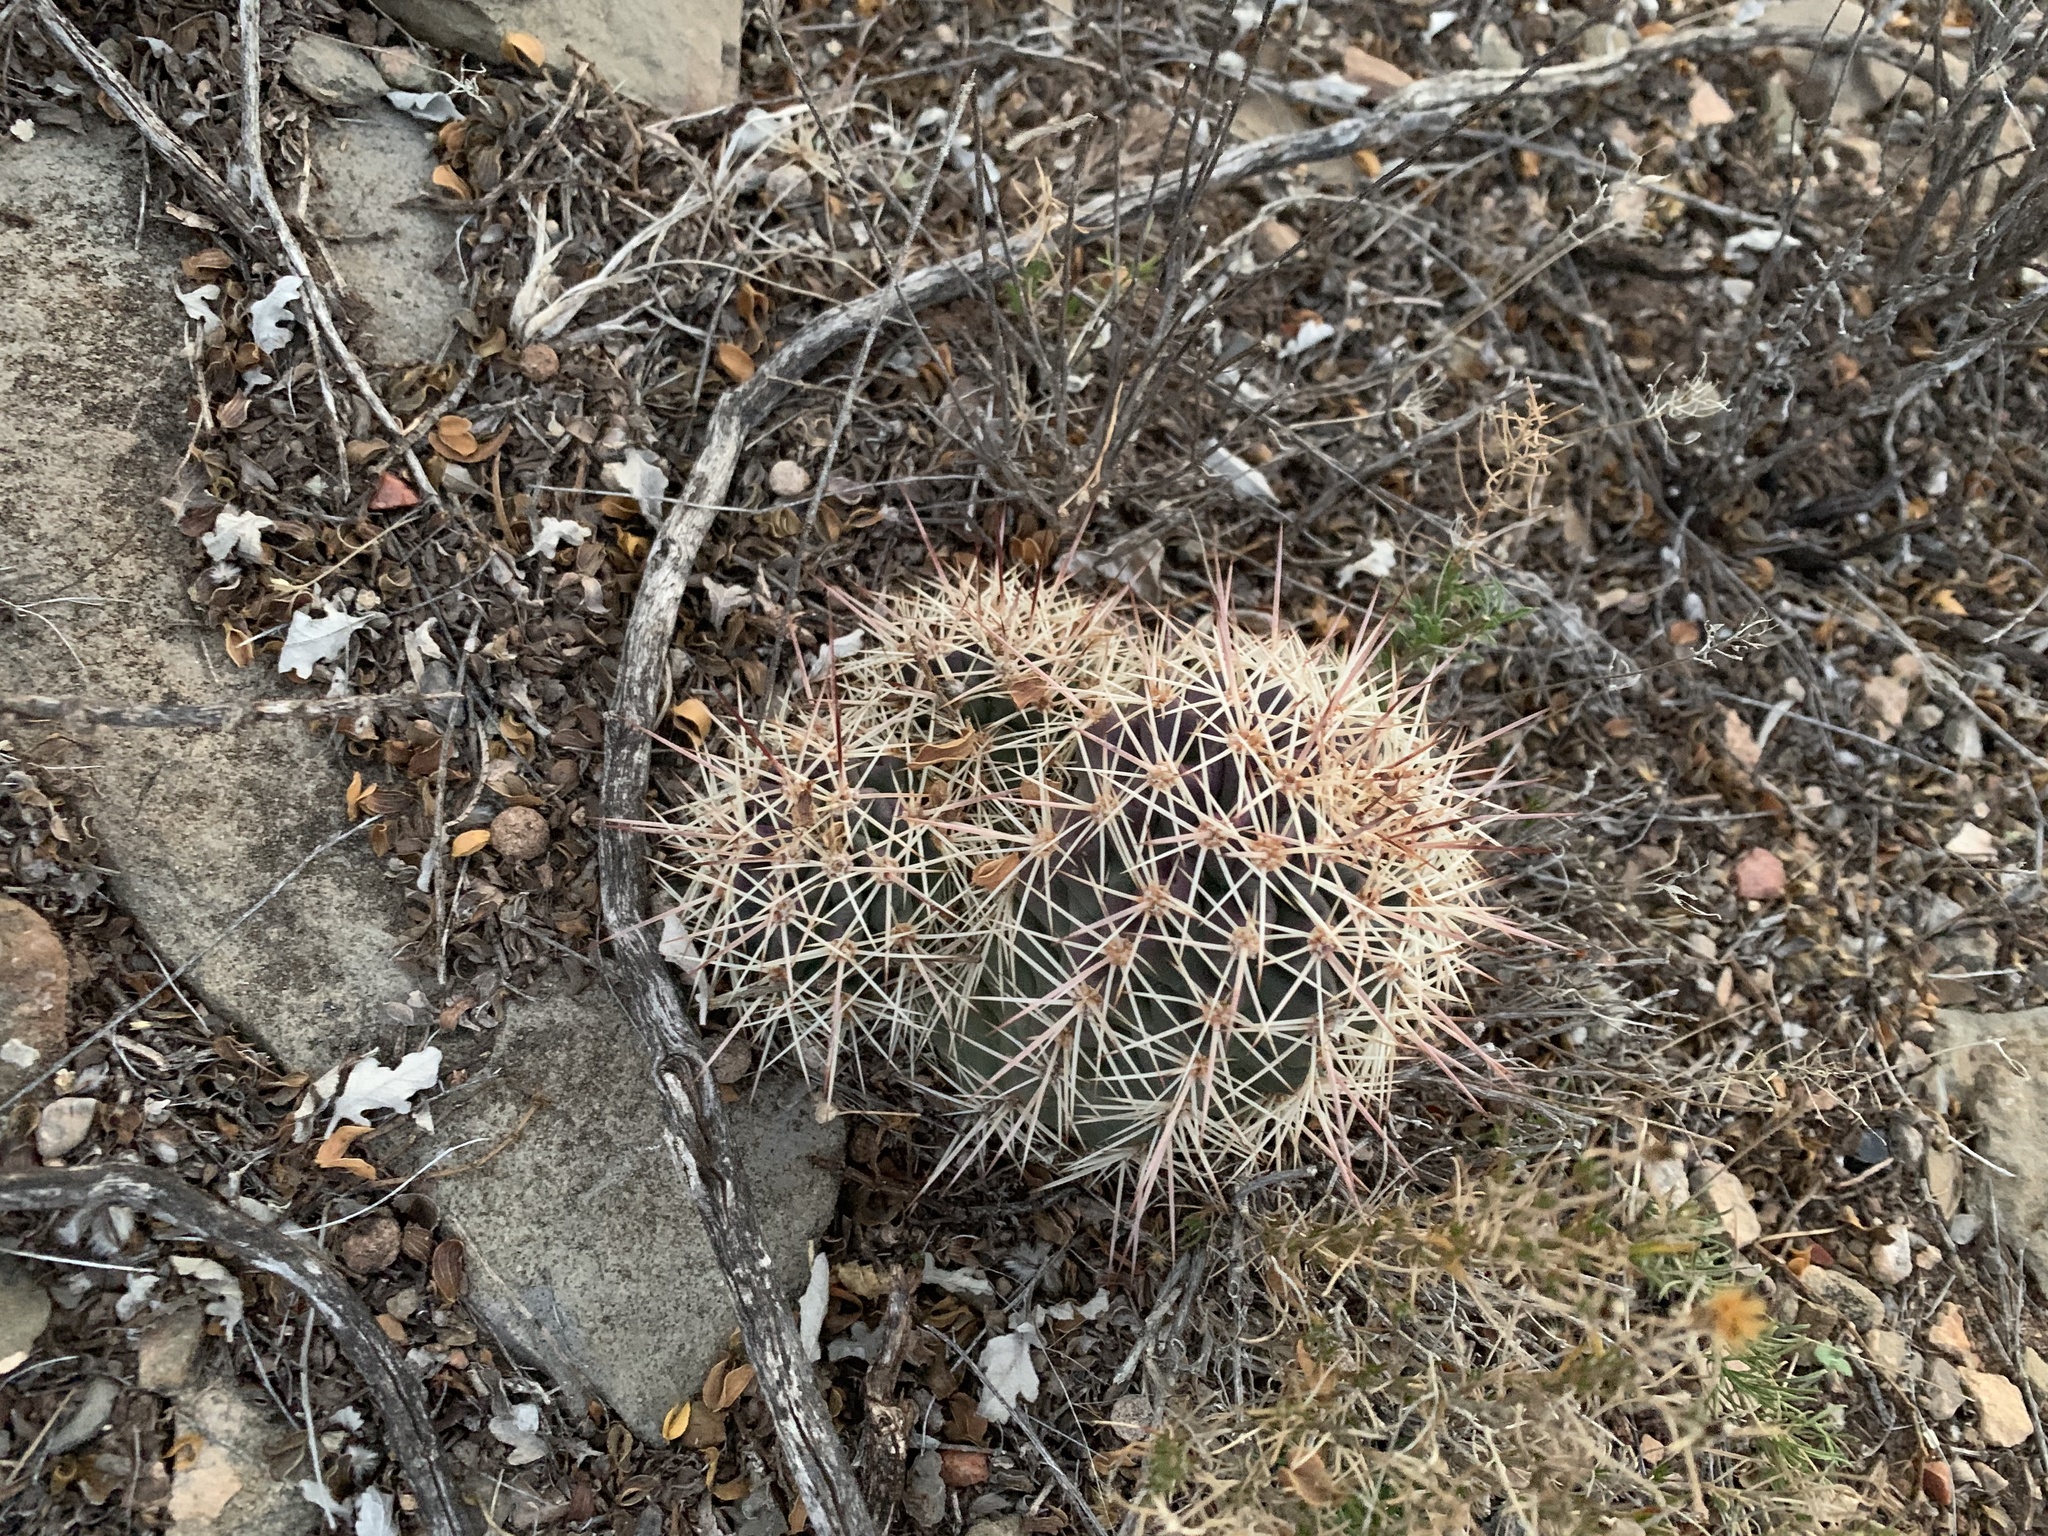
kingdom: Plantae
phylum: Tracheophyta
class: Magnoliopsida
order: Caryophyllales
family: Cactaceae
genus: Echinocereus
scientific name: Echinocereus coccineus
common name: Scarlet hedgehog cactus
